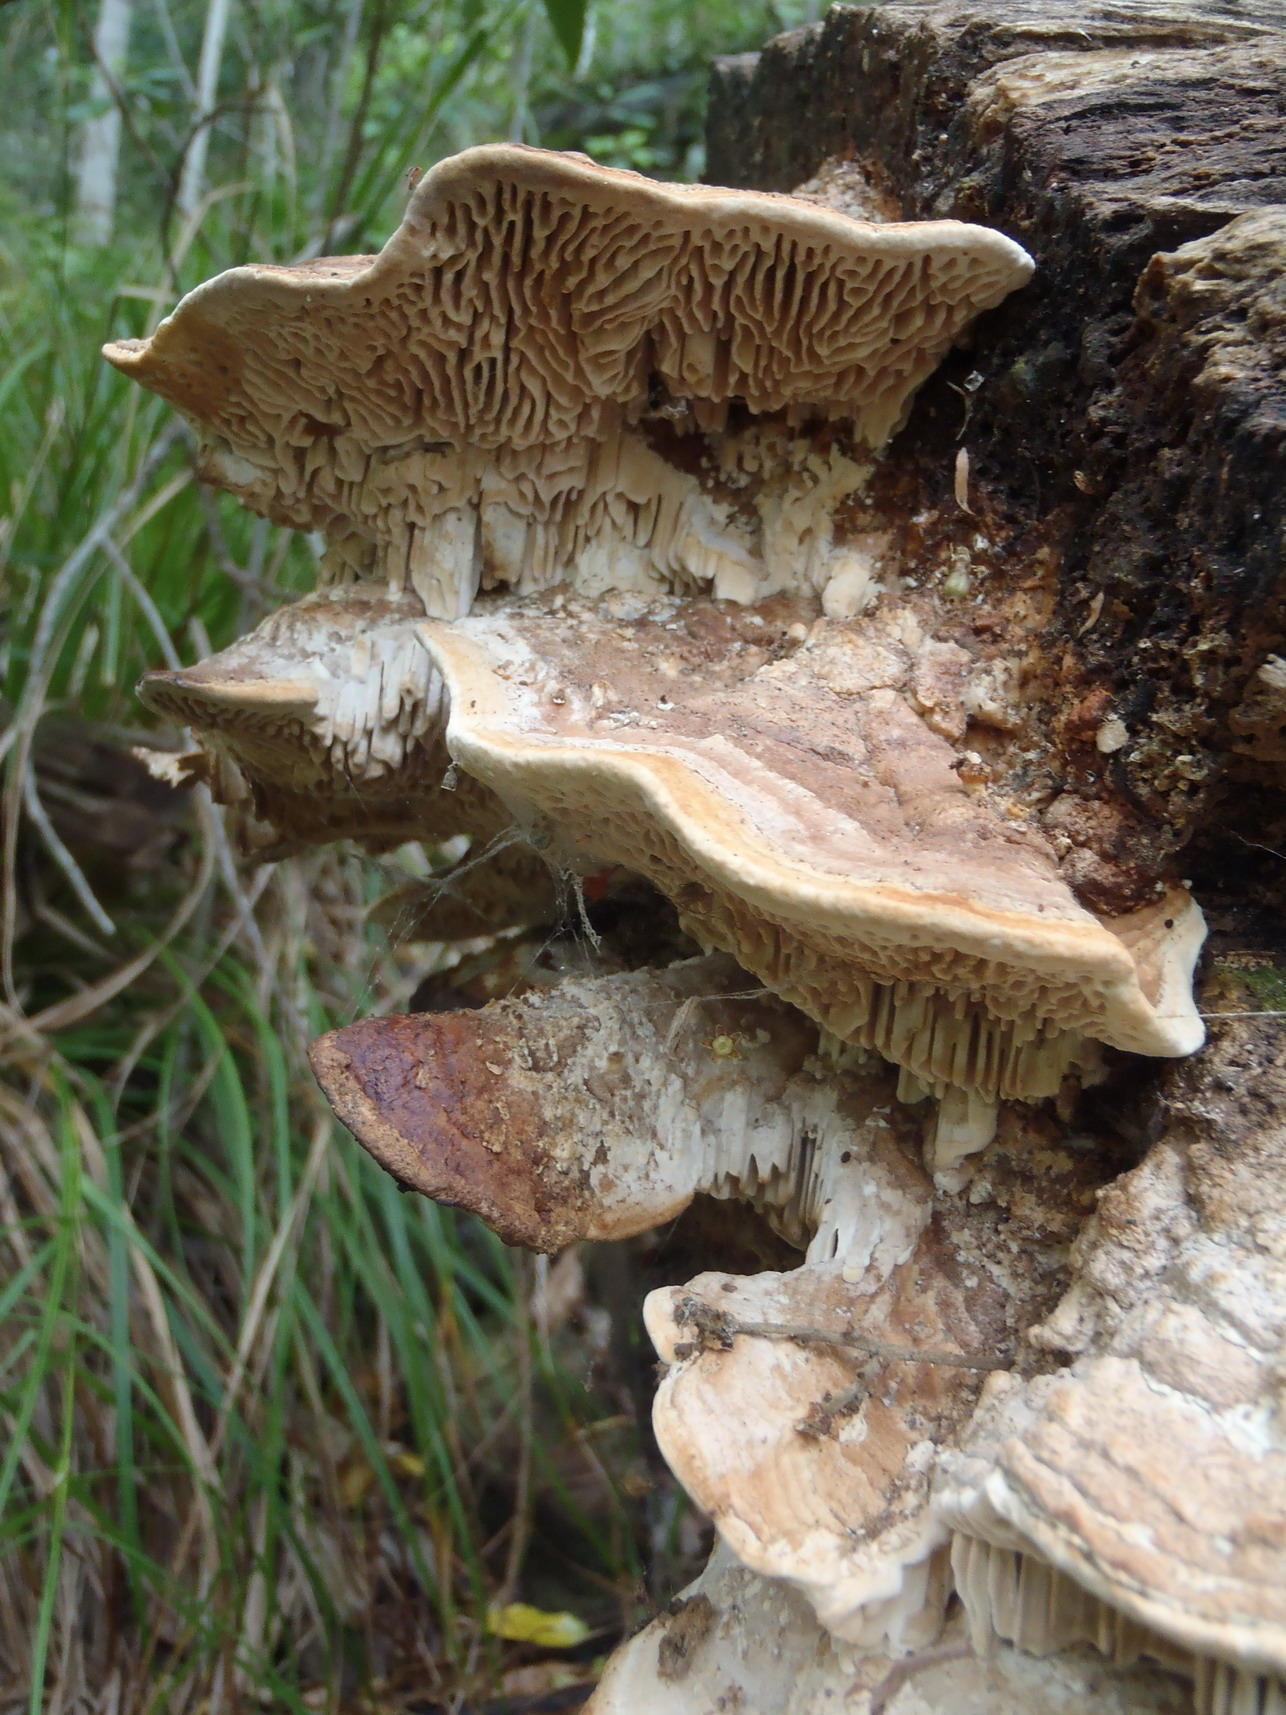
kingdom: Fungi
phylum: Basidiomycota
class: Agaricomycetes
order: Polyporales
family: Fomitopsidaceae
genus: Fomitopsis
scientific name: Fomitopsis
